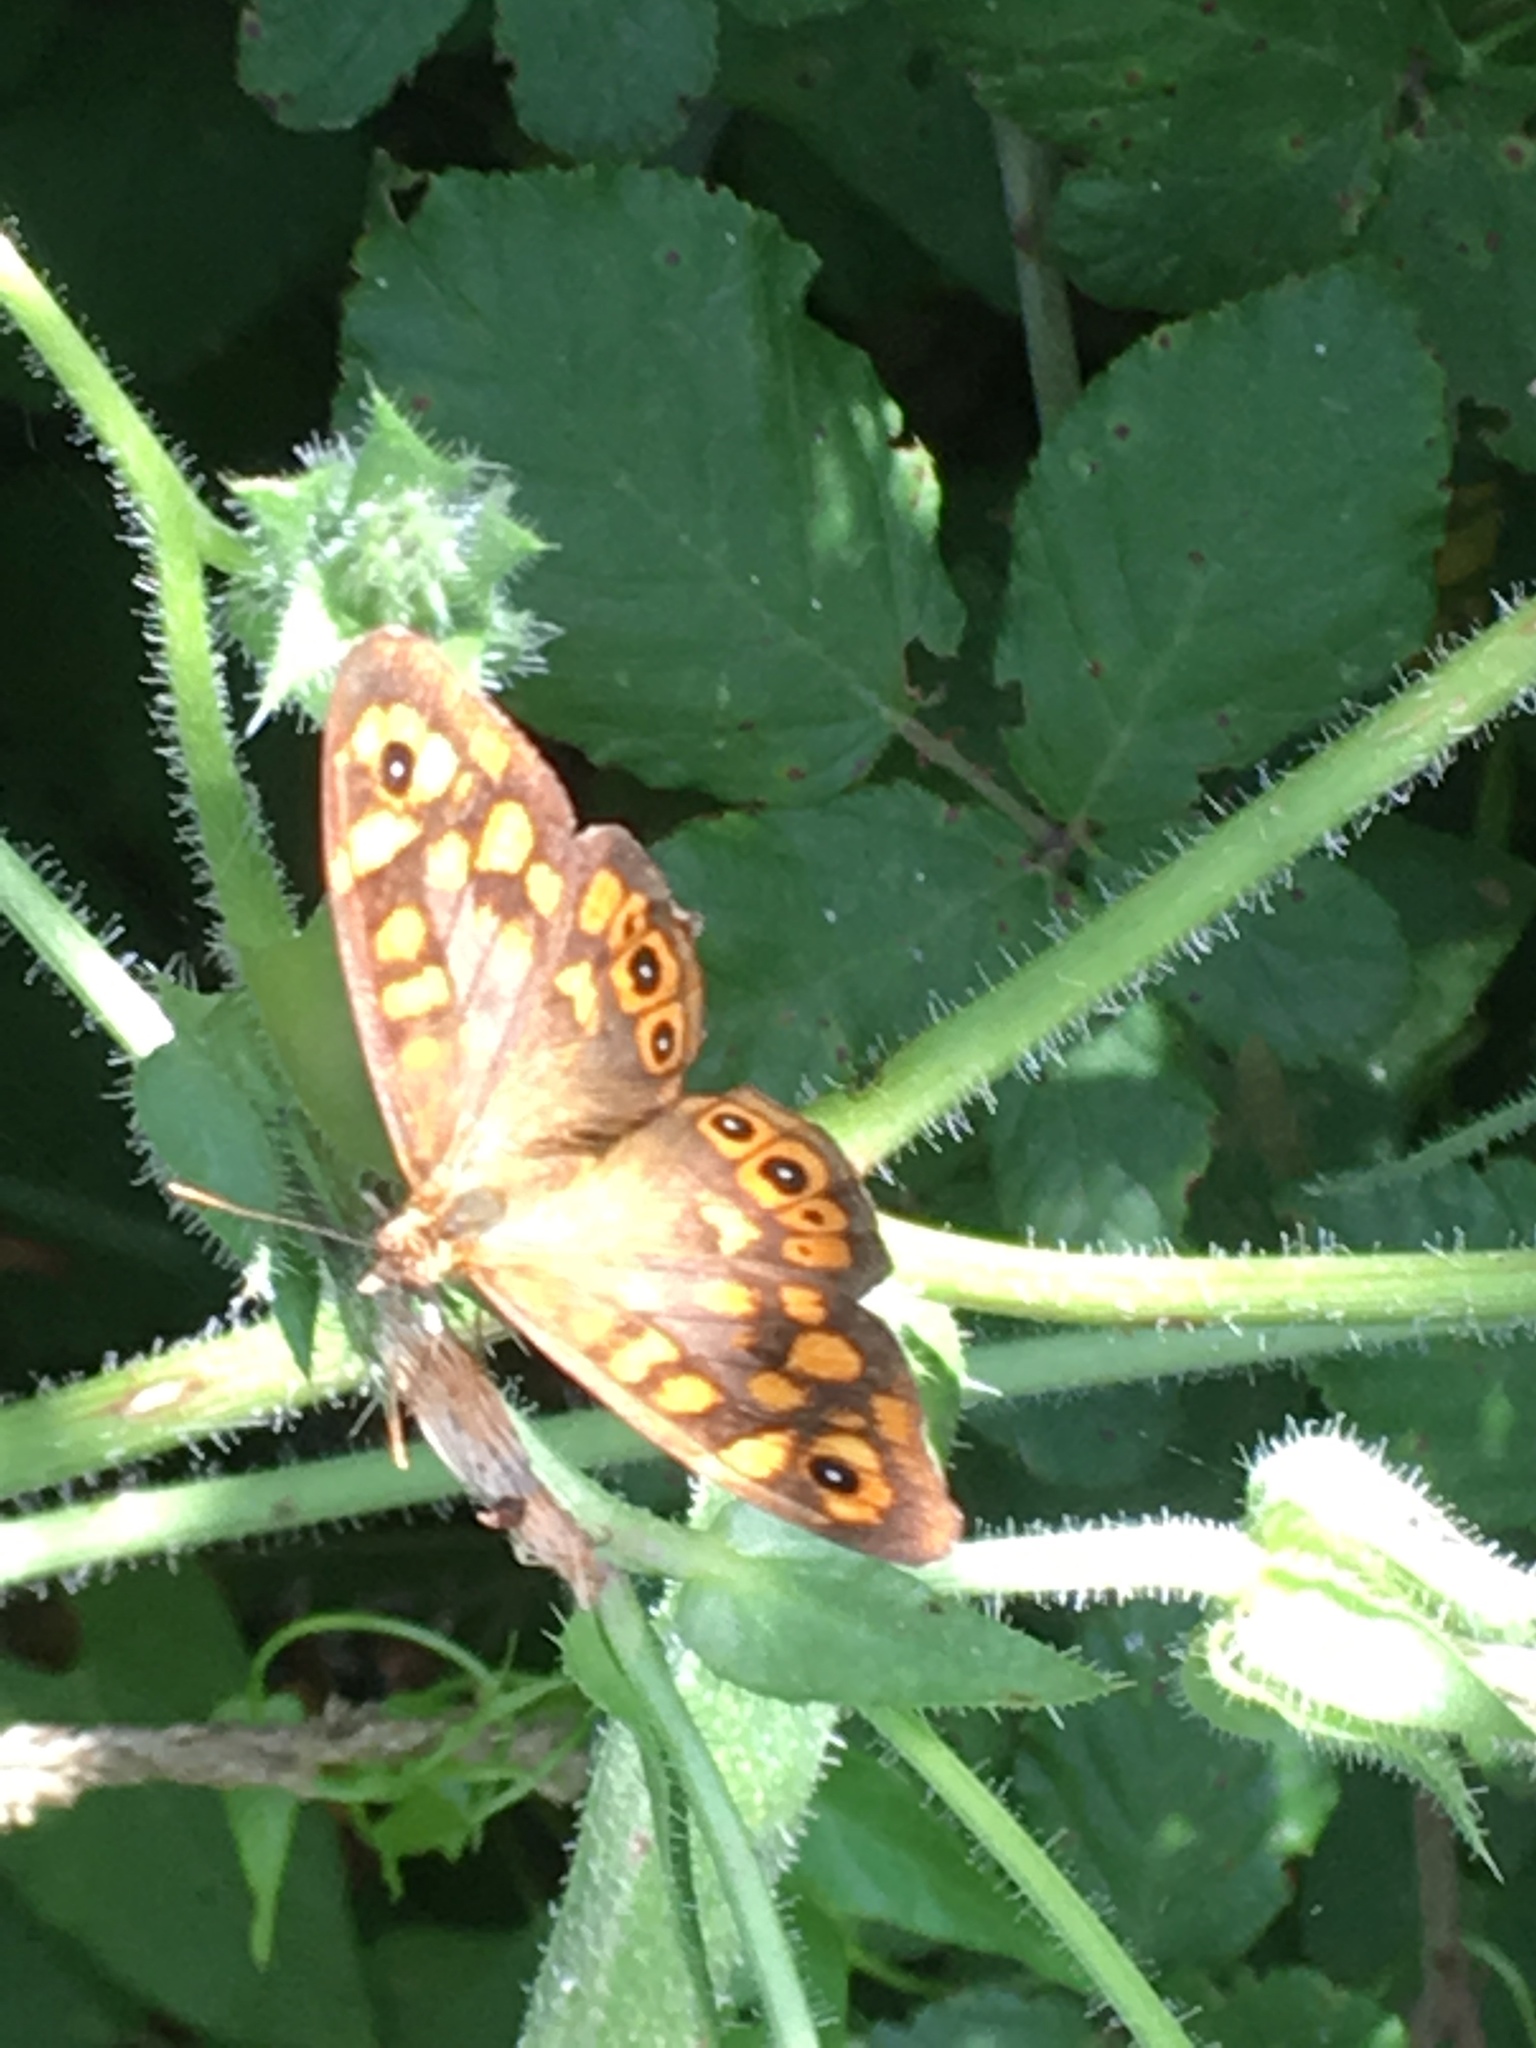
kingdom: Animalia
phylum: Arthropoda
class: Insecta
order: Lepidoptera
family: Nymphalidae
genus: Pararge
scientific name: Pararge aegeria
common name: Speckled wood
